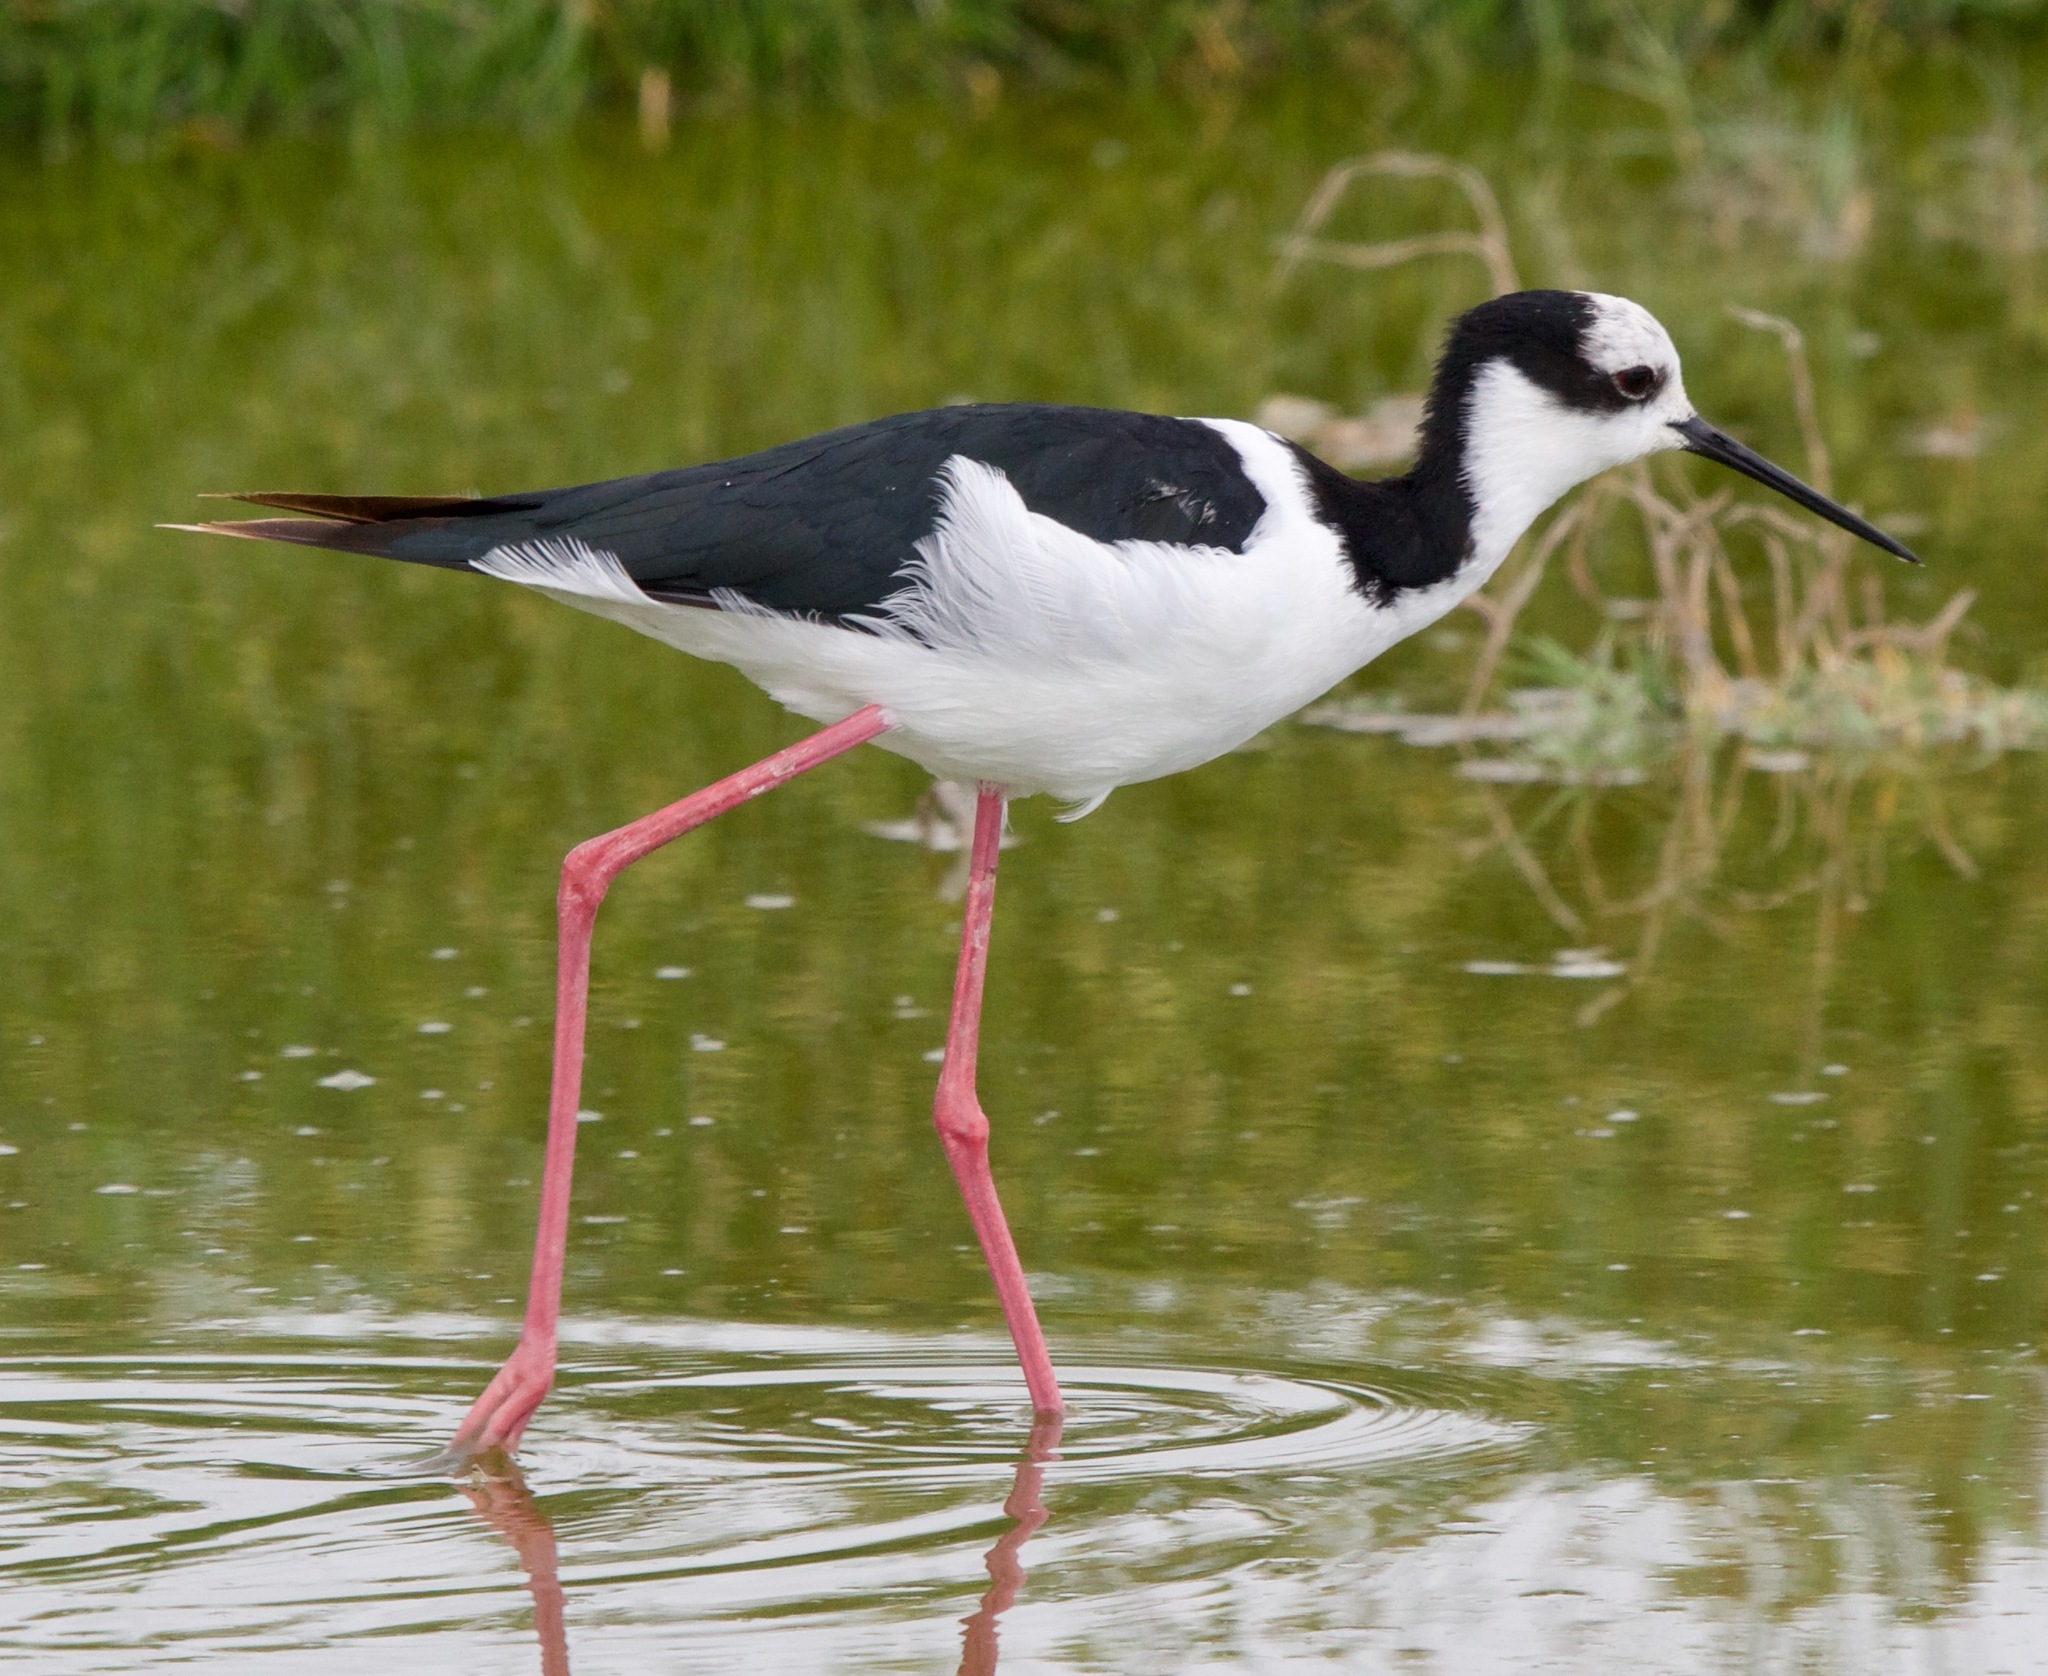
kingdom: Animalia
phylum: Chordata
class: Aves
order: Charadriiformes
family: Recurvirostridae
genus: Himantopus
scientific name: Himantopus mexicanus
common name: Black-necked stilt
